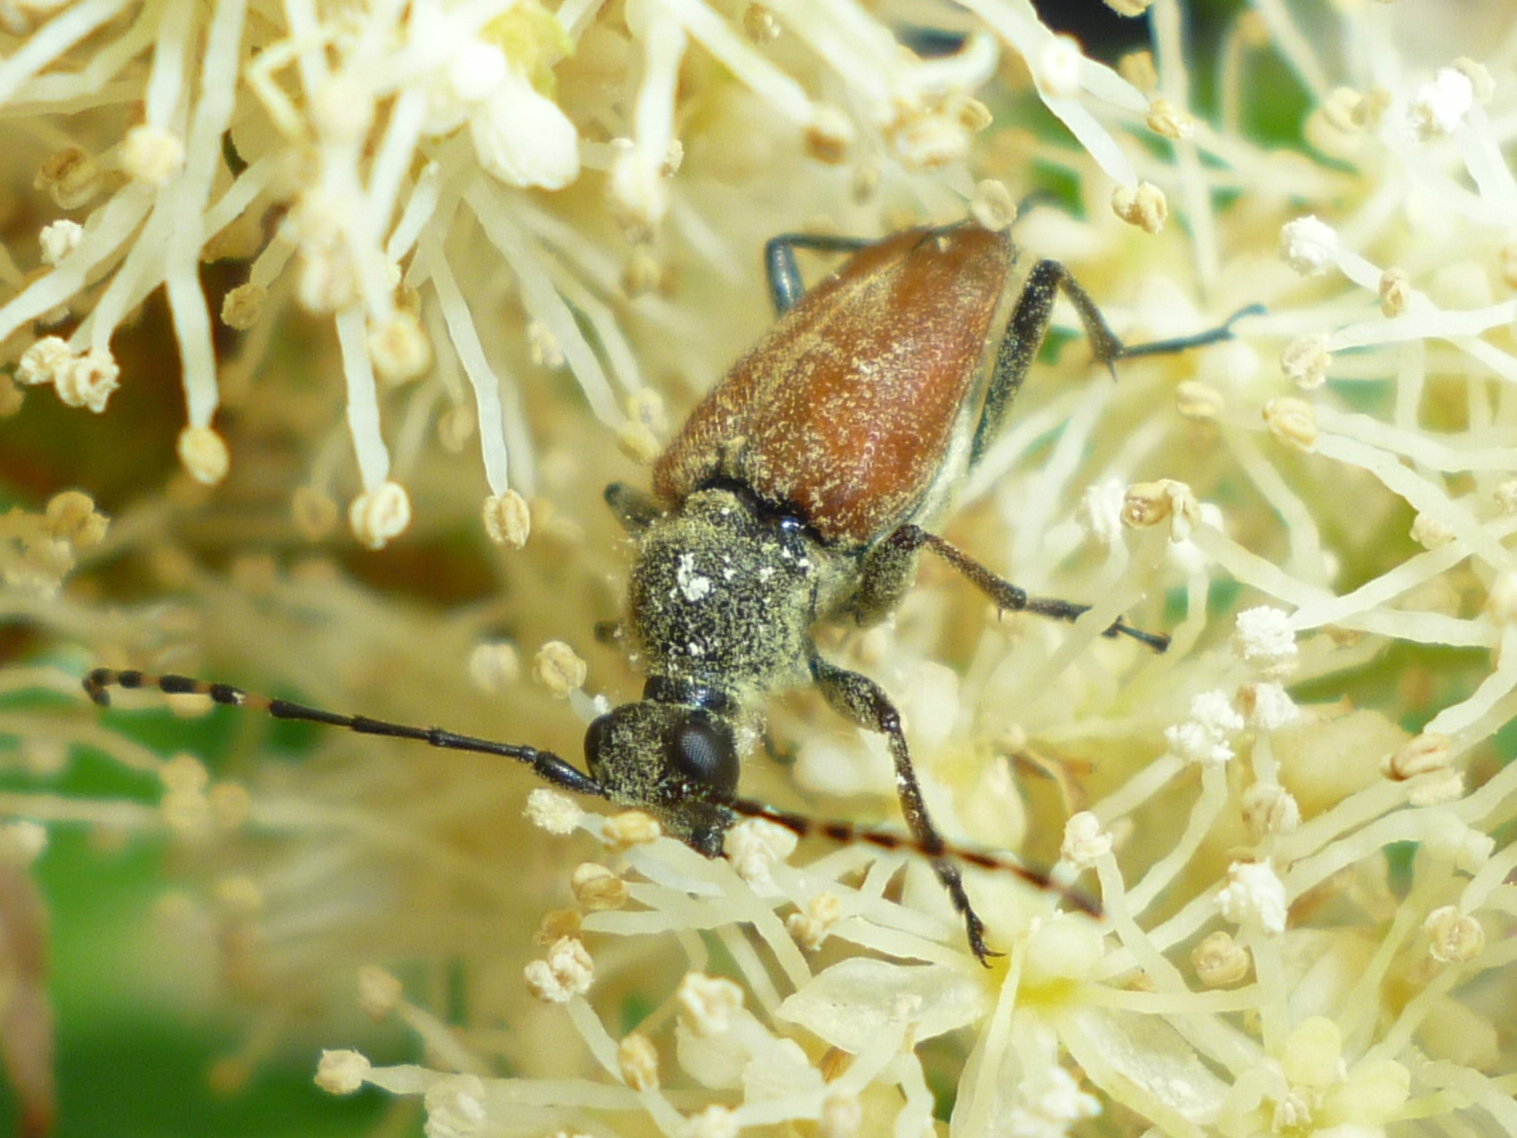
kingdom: Animalia
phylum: Arthropoda
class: Insecta
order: Coleoptera
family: Cerambycidae
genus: Brachyleptura
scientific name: Brachyleptura rubrica
